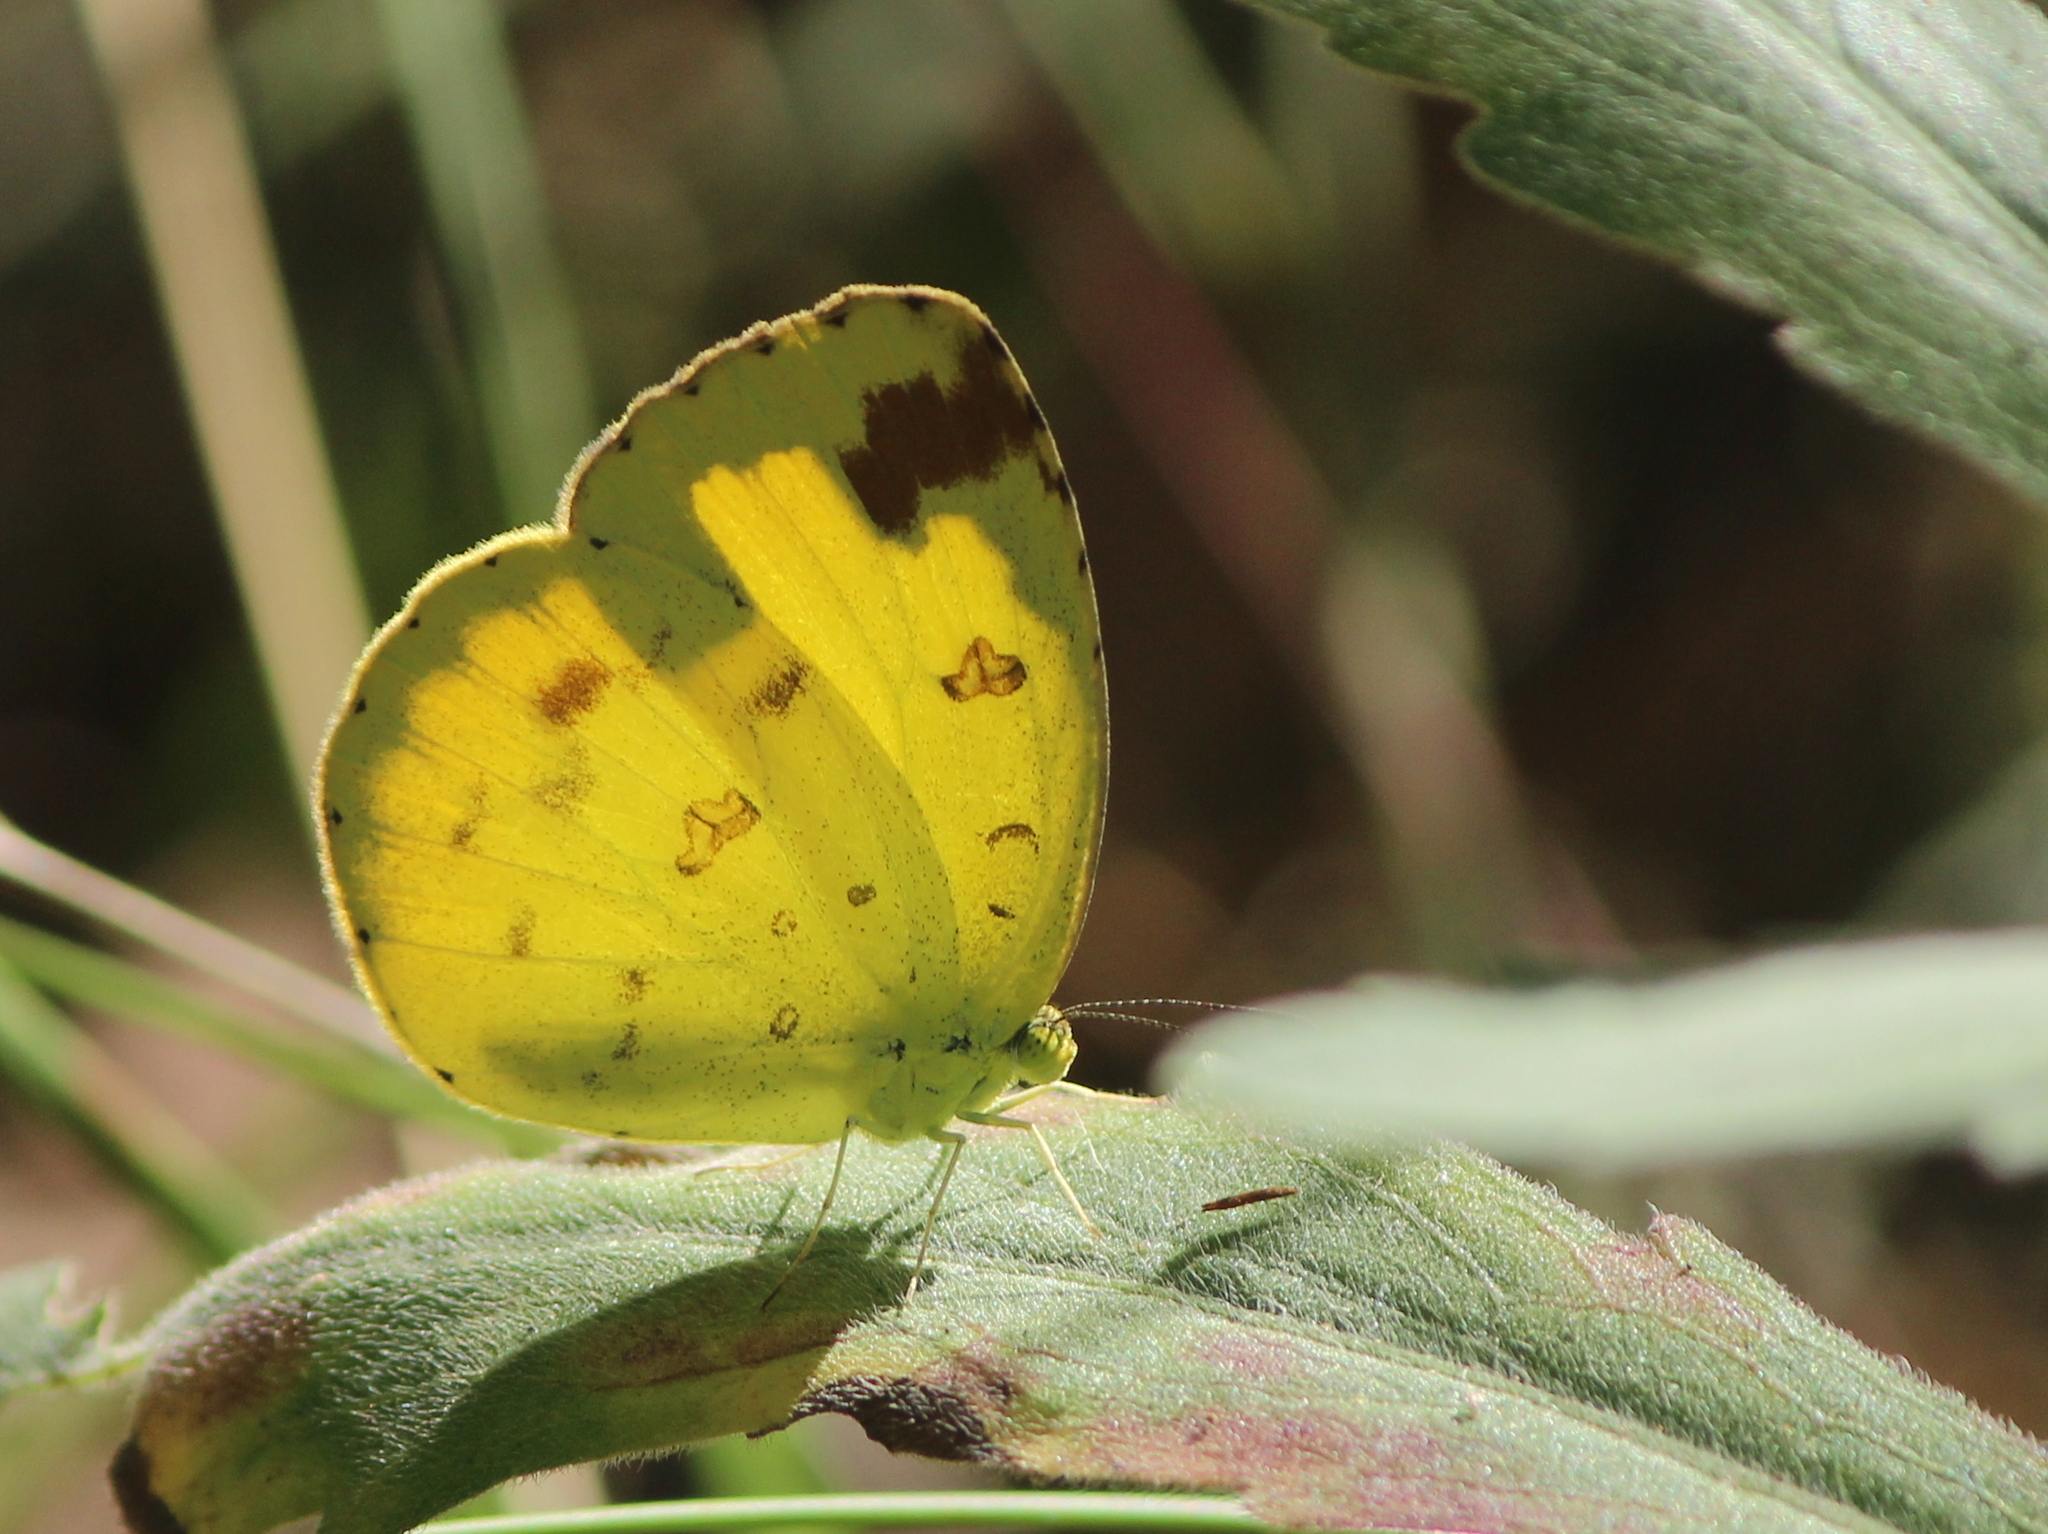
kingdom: Animalia
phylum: Arthropoda
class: Insecta
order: Lepidoptera
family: Pieridae
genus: Eurema
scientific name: Eurema hecabe
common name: Pale grass yellow
